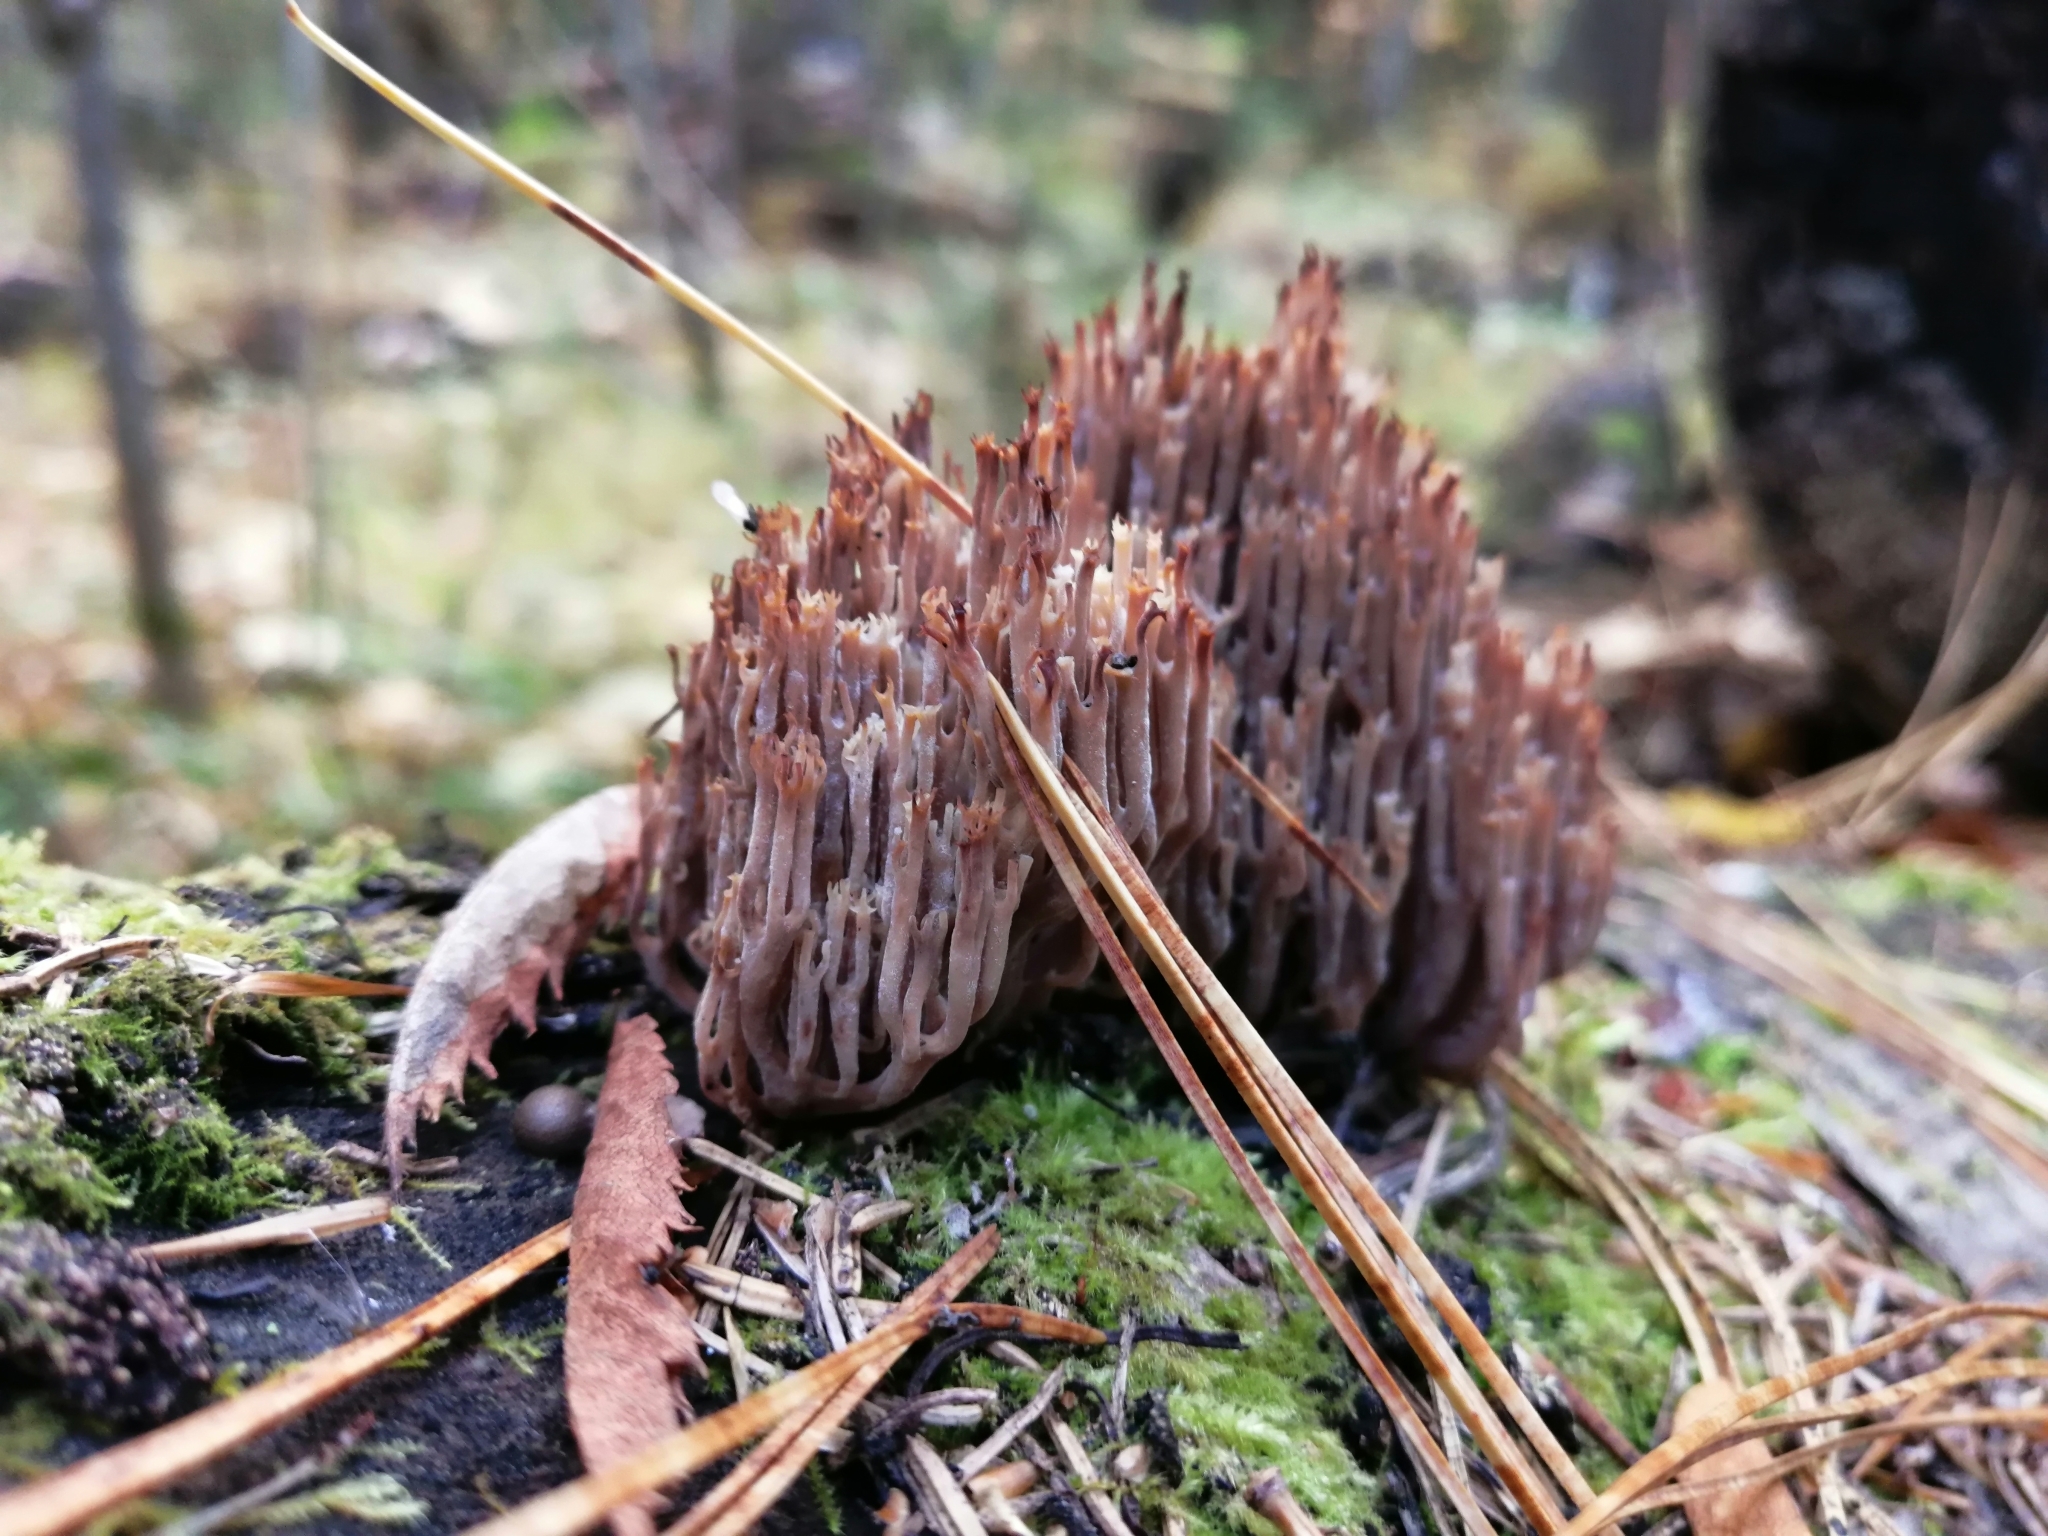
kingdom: Fungi
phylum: Basidiomycota
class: Agaricomycetes
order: Russulales
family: Auriscalpiaceae
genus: Artomyces
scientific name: Artomyces pyxidatus
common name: Crown-tipped coral fungus
